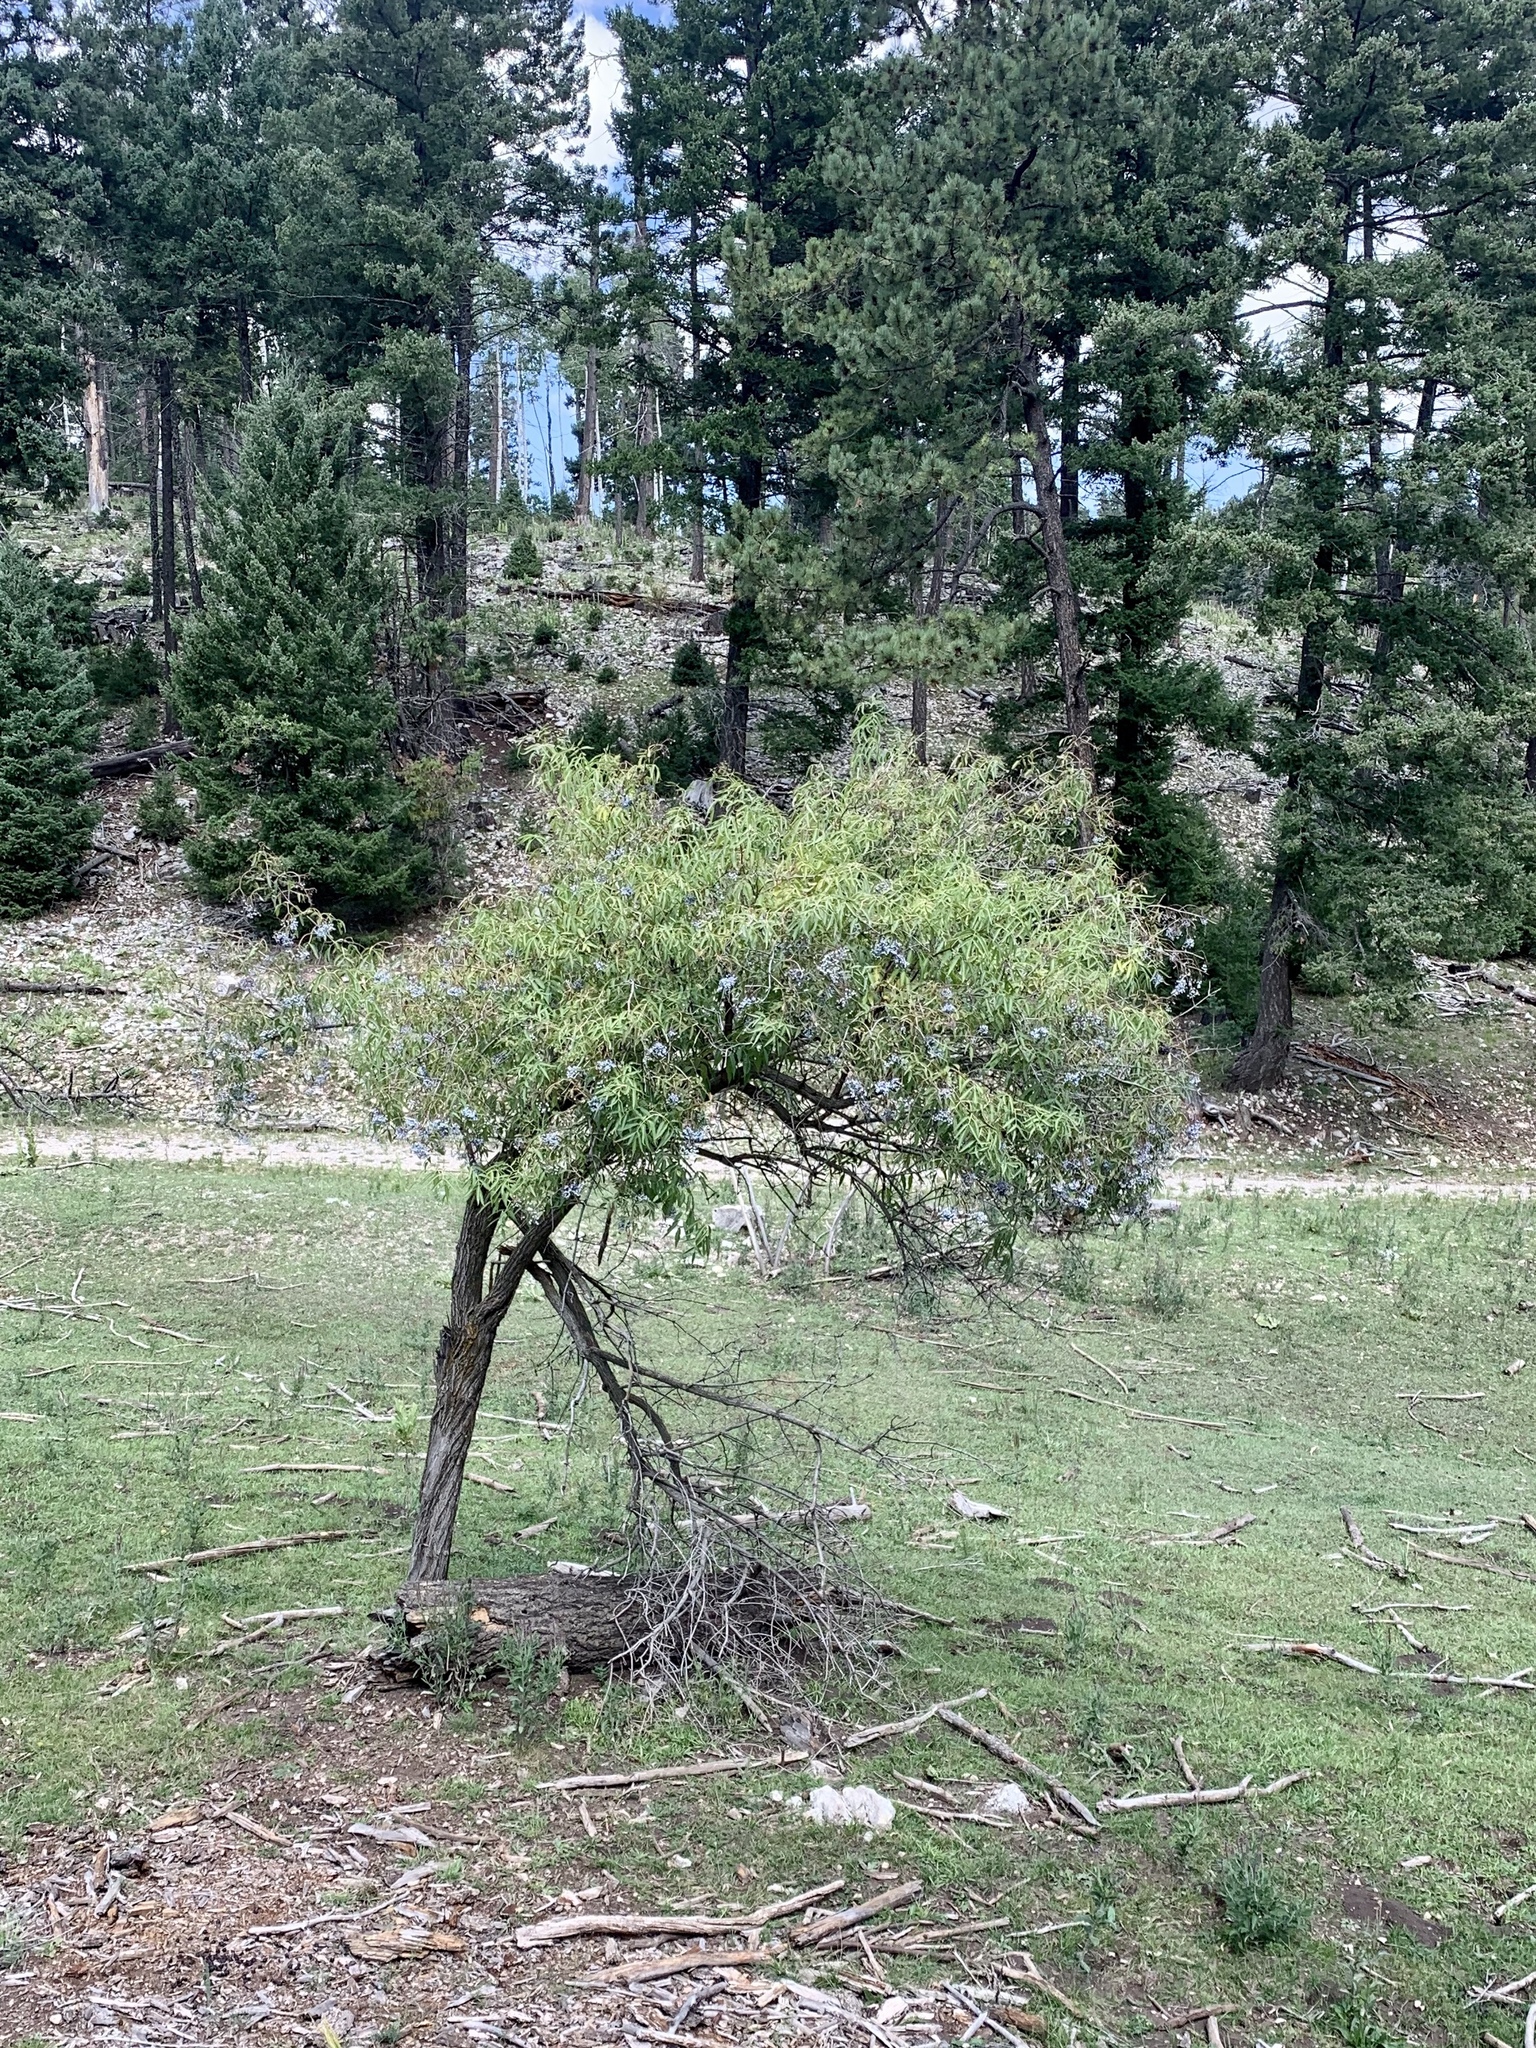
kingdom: Plantae
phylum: Tracheophyta
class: Magnoliopsida
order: Dipsacales
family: Viburnaceae
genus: Sambucus
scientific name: Sambucus cerulea
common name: Blue elder
